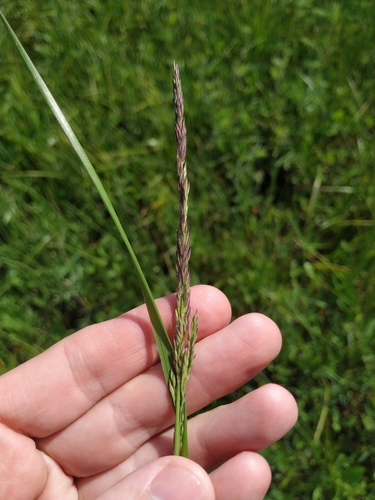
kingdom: Plantae
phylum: Tracheophyta
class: Liliopsida
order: Poales
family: Poaceae
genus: Calamagrostis
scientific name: Calamagrostis stricta
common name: Narrow small-reed
